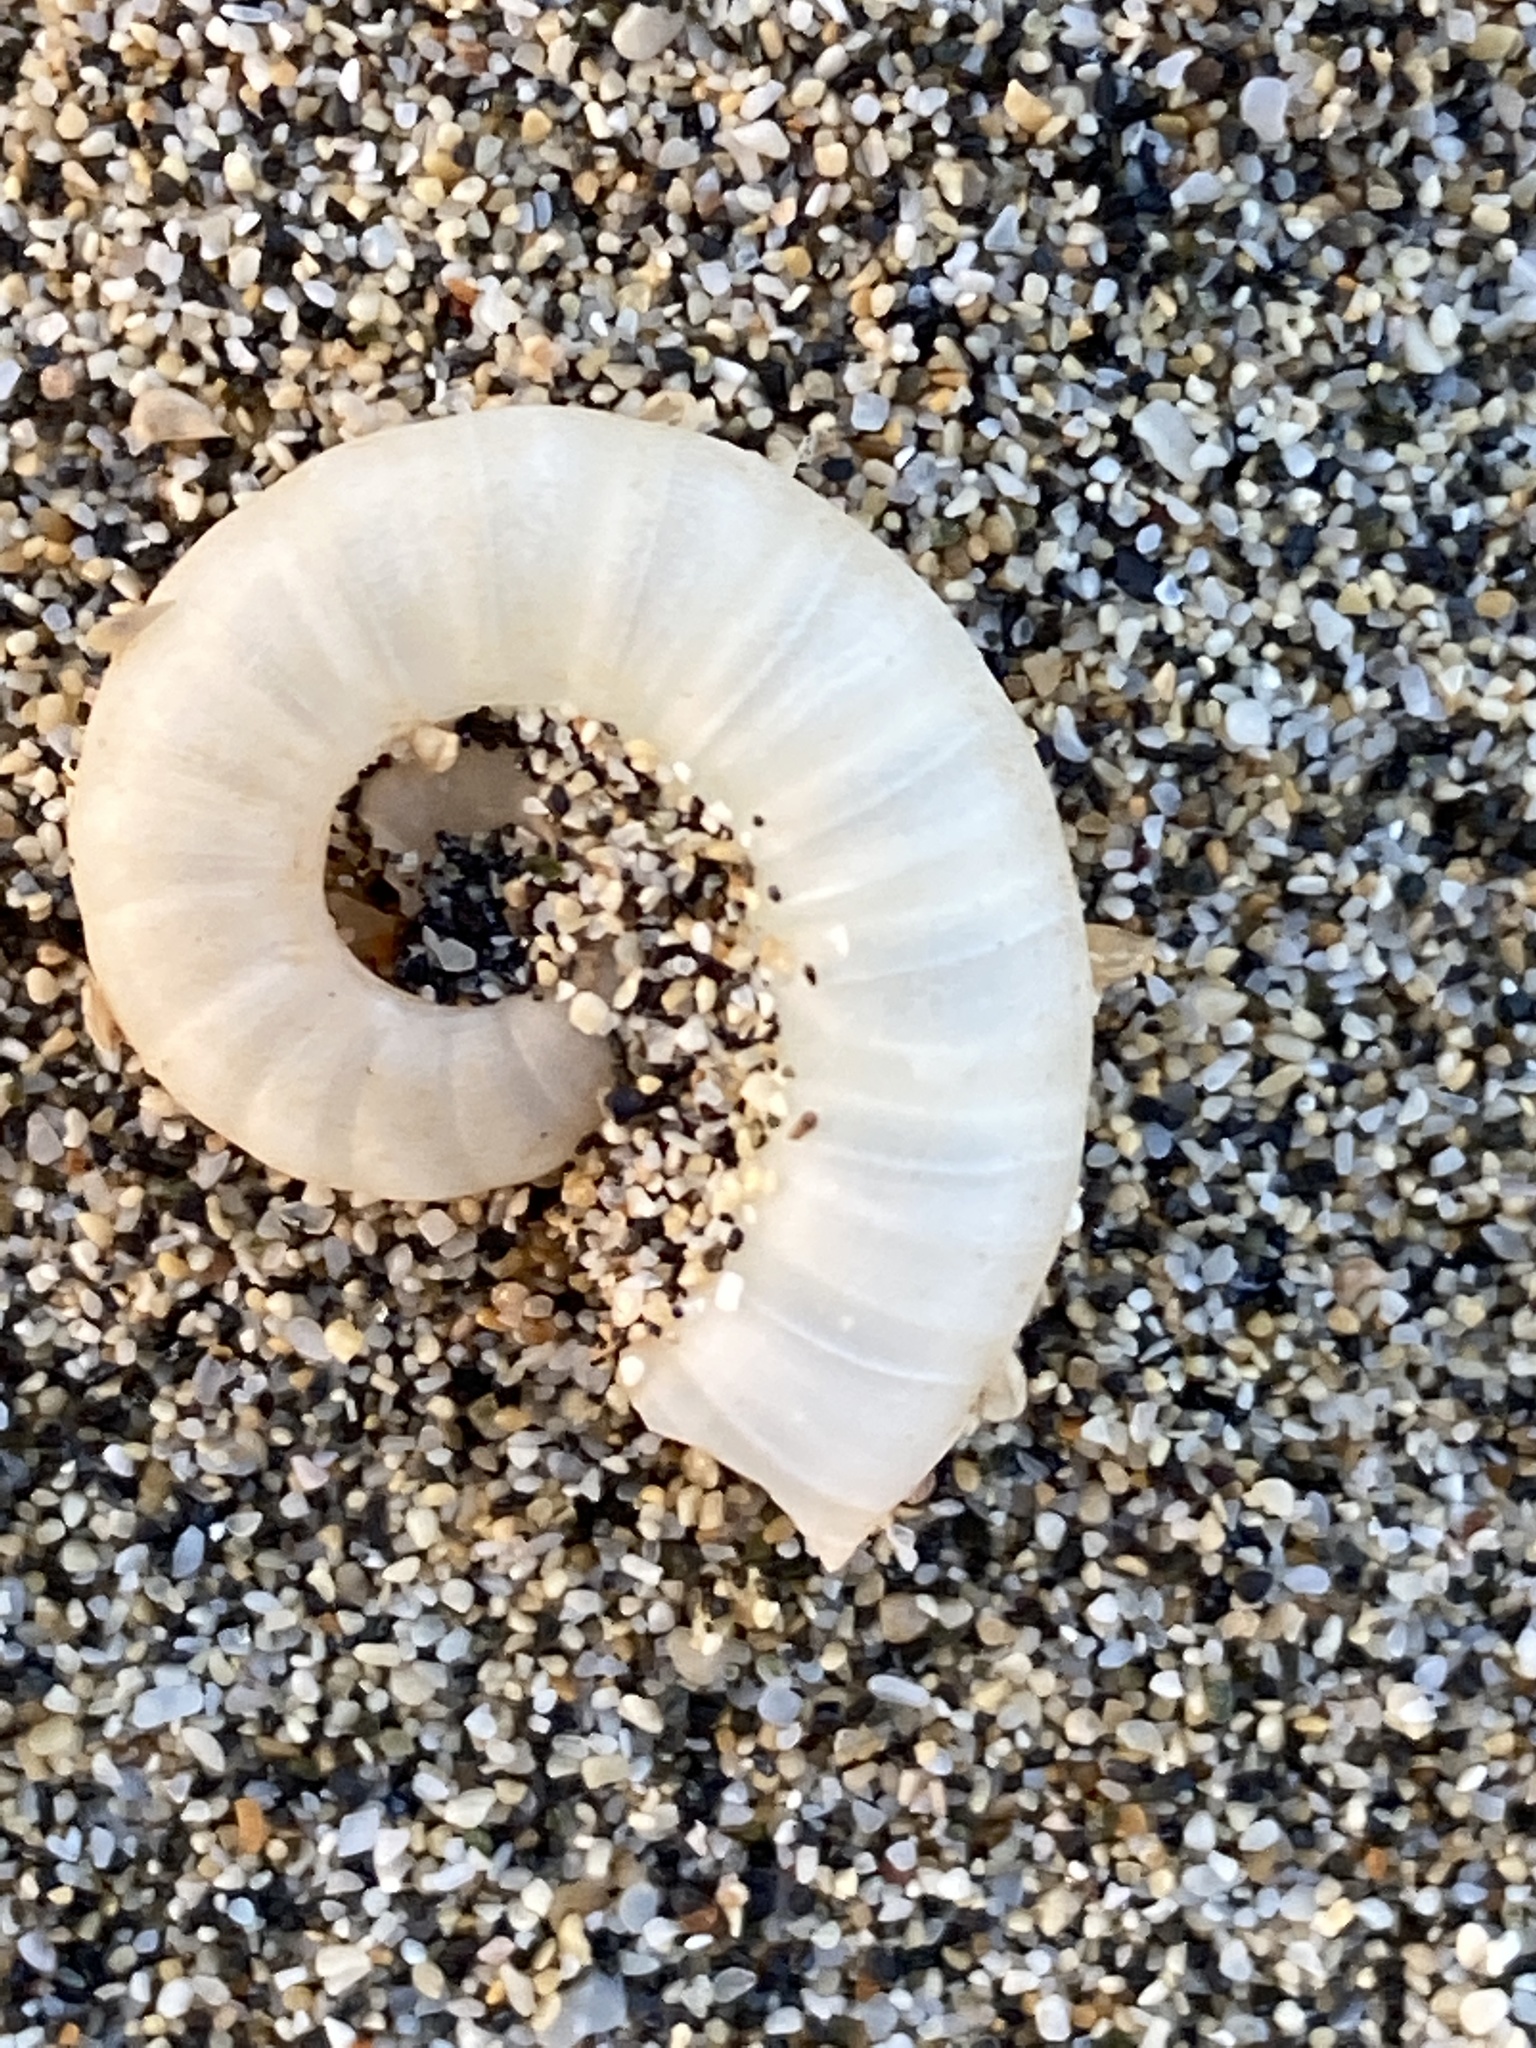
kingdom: Animalia
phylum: Mollusca
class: Cephalopoda
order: Spirulida
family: Spirulidae
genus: Spirula
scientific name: Spirula spirula
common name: Ram's horn squid
